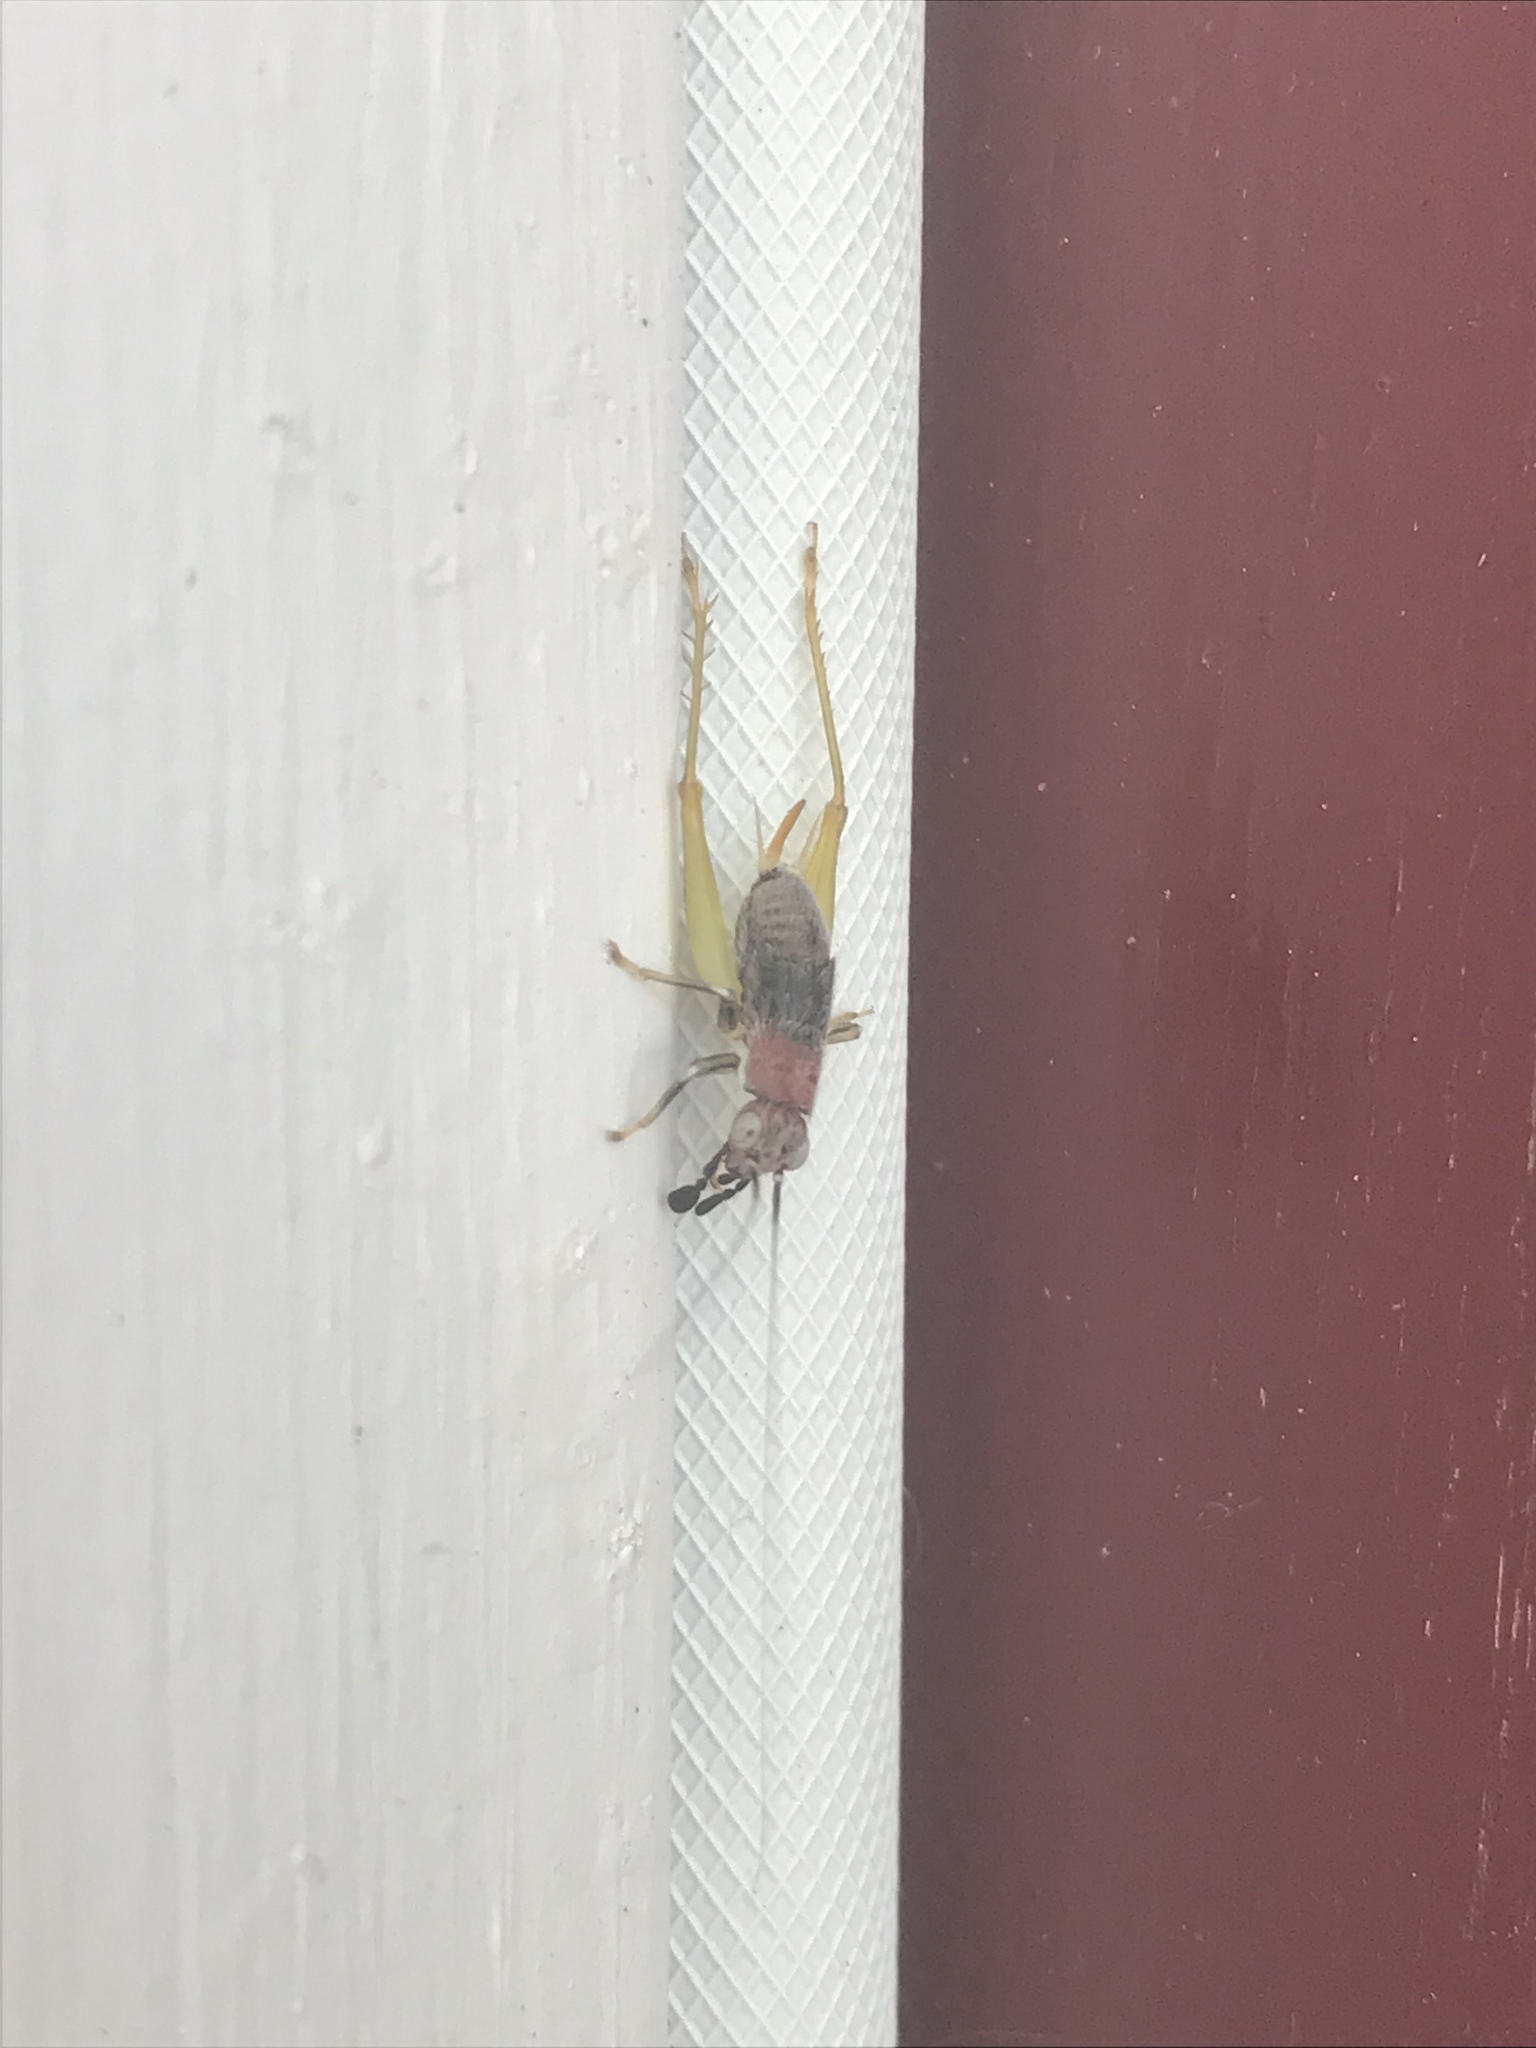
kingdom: Animalia
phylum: Arthropoda
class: Insecta
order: Orthoptera
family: Trigonidiidae
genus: Phyllopalpus
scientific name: Phyllopalpus pulchellus
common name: Handsome trig
